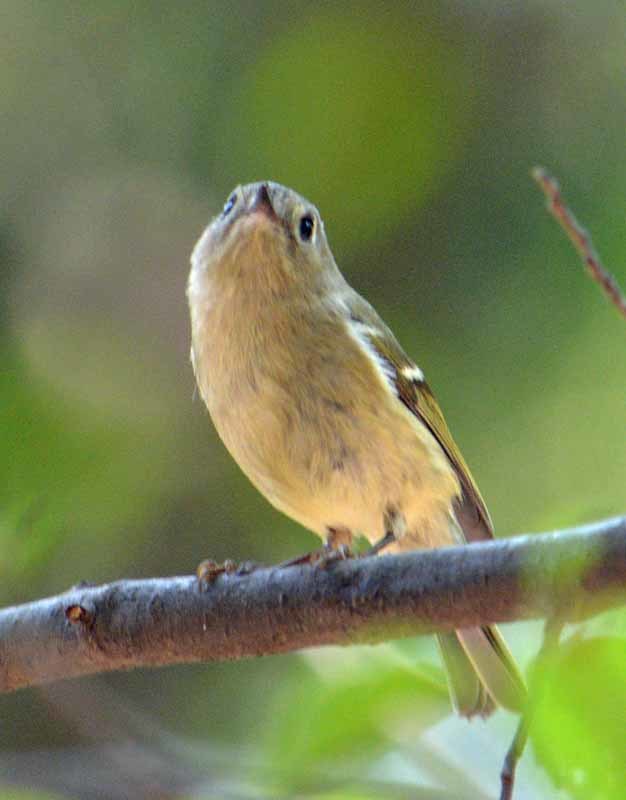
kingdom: Animalia
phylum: Chordata
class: Aves
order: Passeriformes
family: Regulidae
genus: Regulus
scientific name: Regulus calendula
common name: Ruby-crowned kinglet
